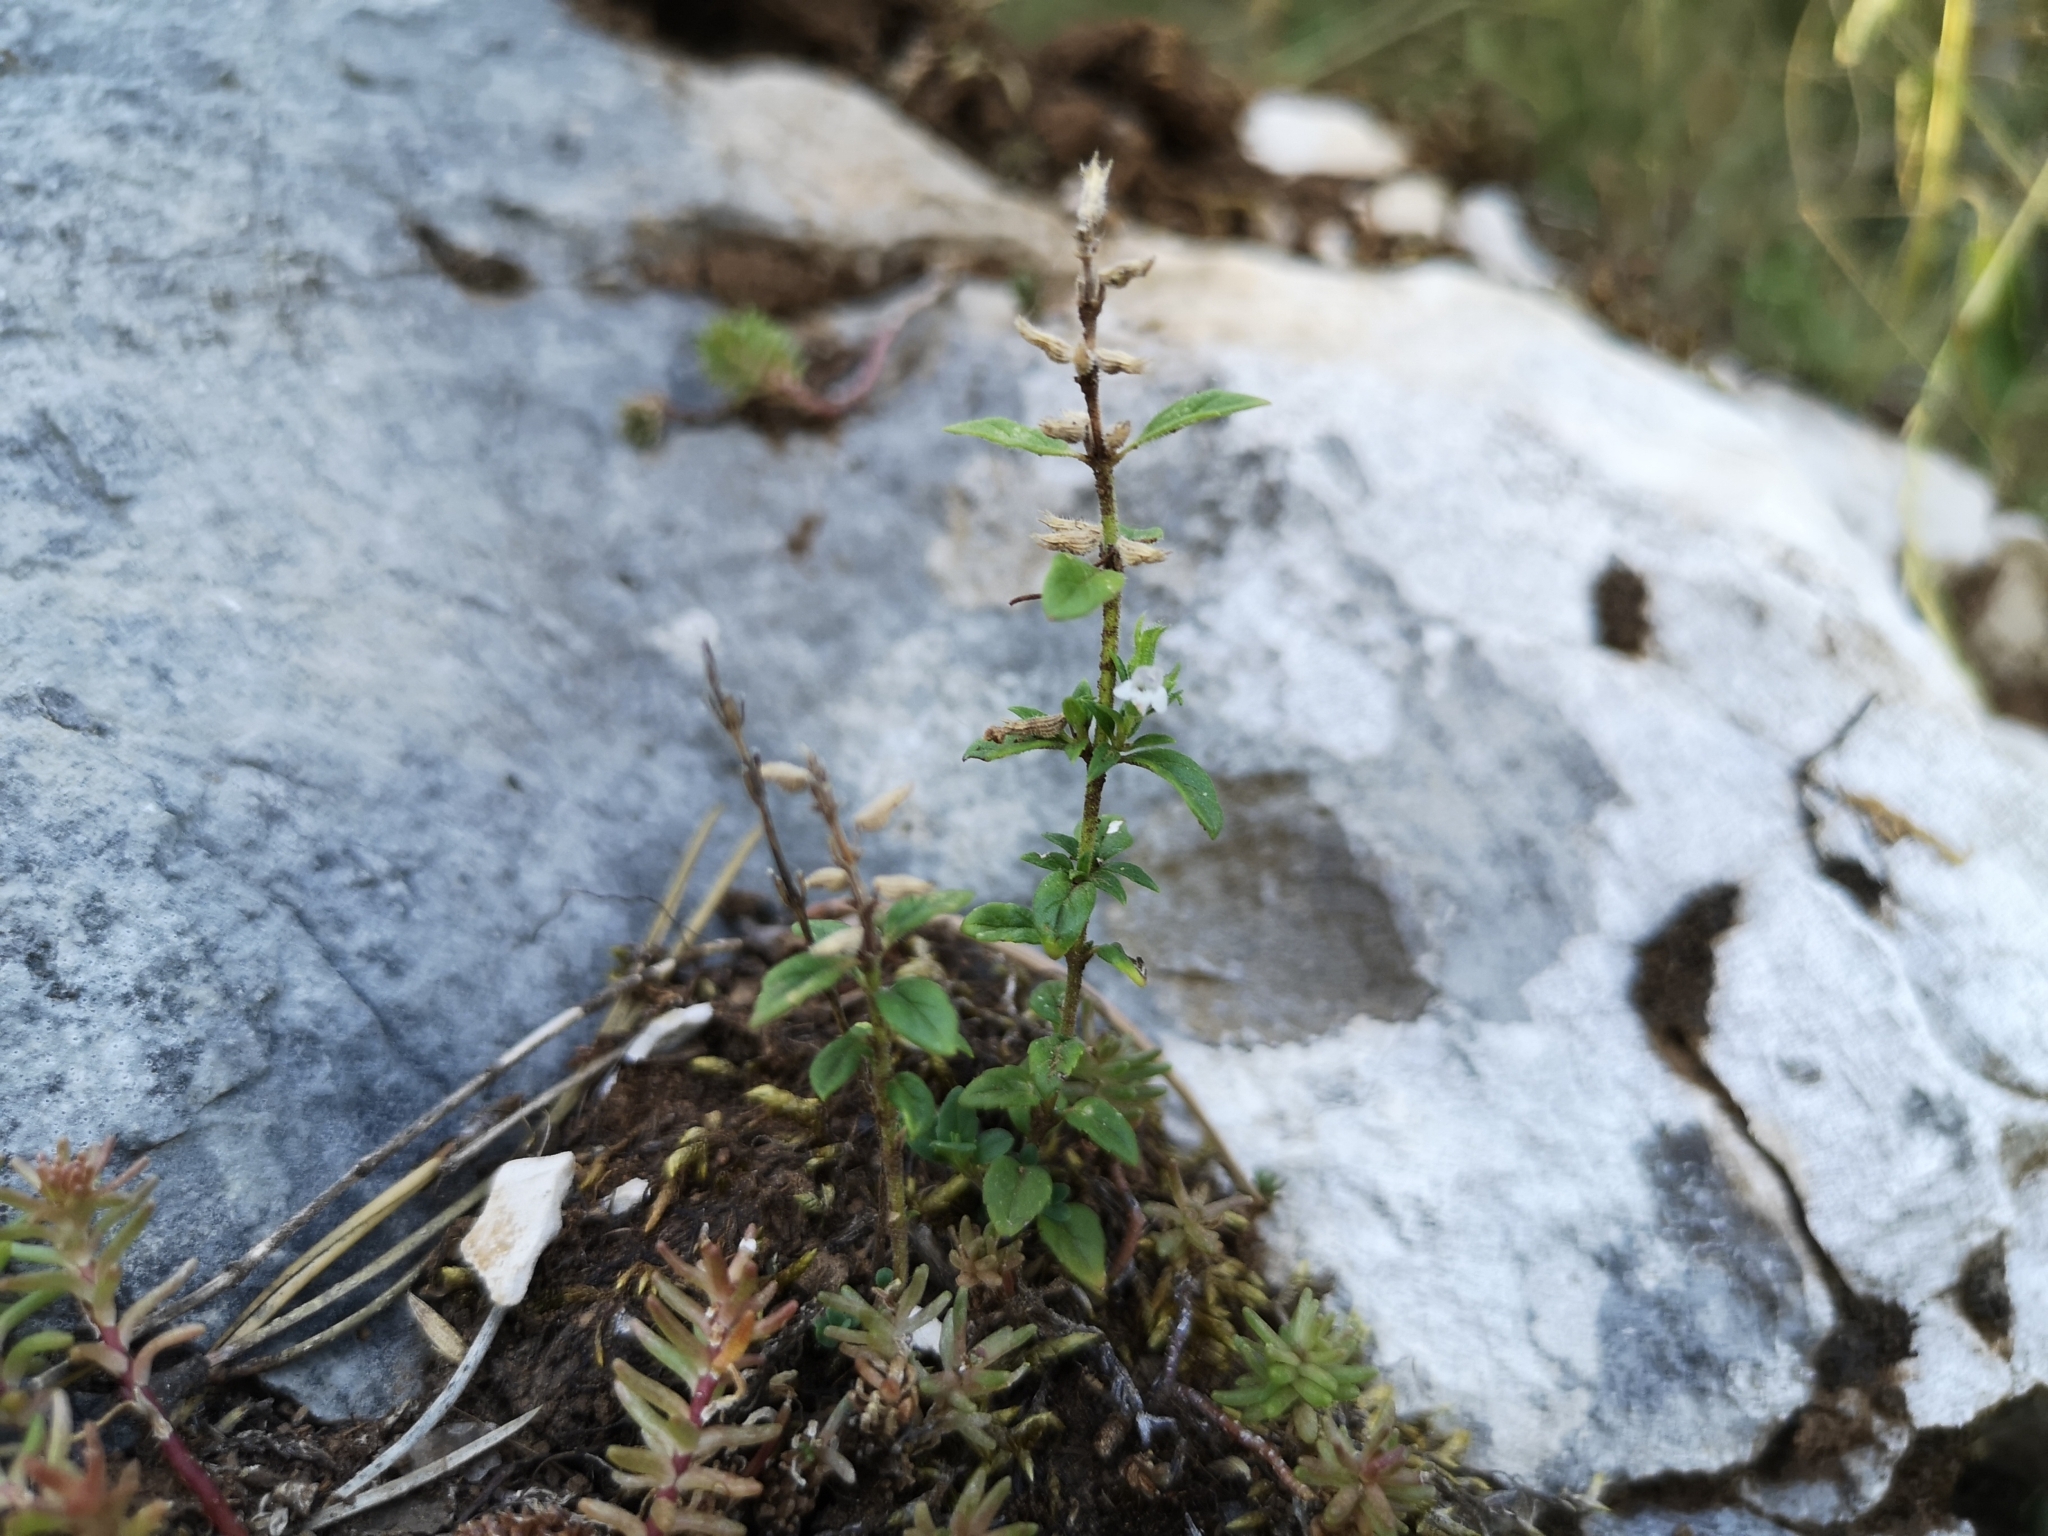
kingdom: Plantae
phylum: Tracheophyta
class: Magnoliopsida
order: Lamiales
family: Lamiaceae
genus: Clinopodium
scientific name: Clinopodium acinos
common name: Basil thyme
